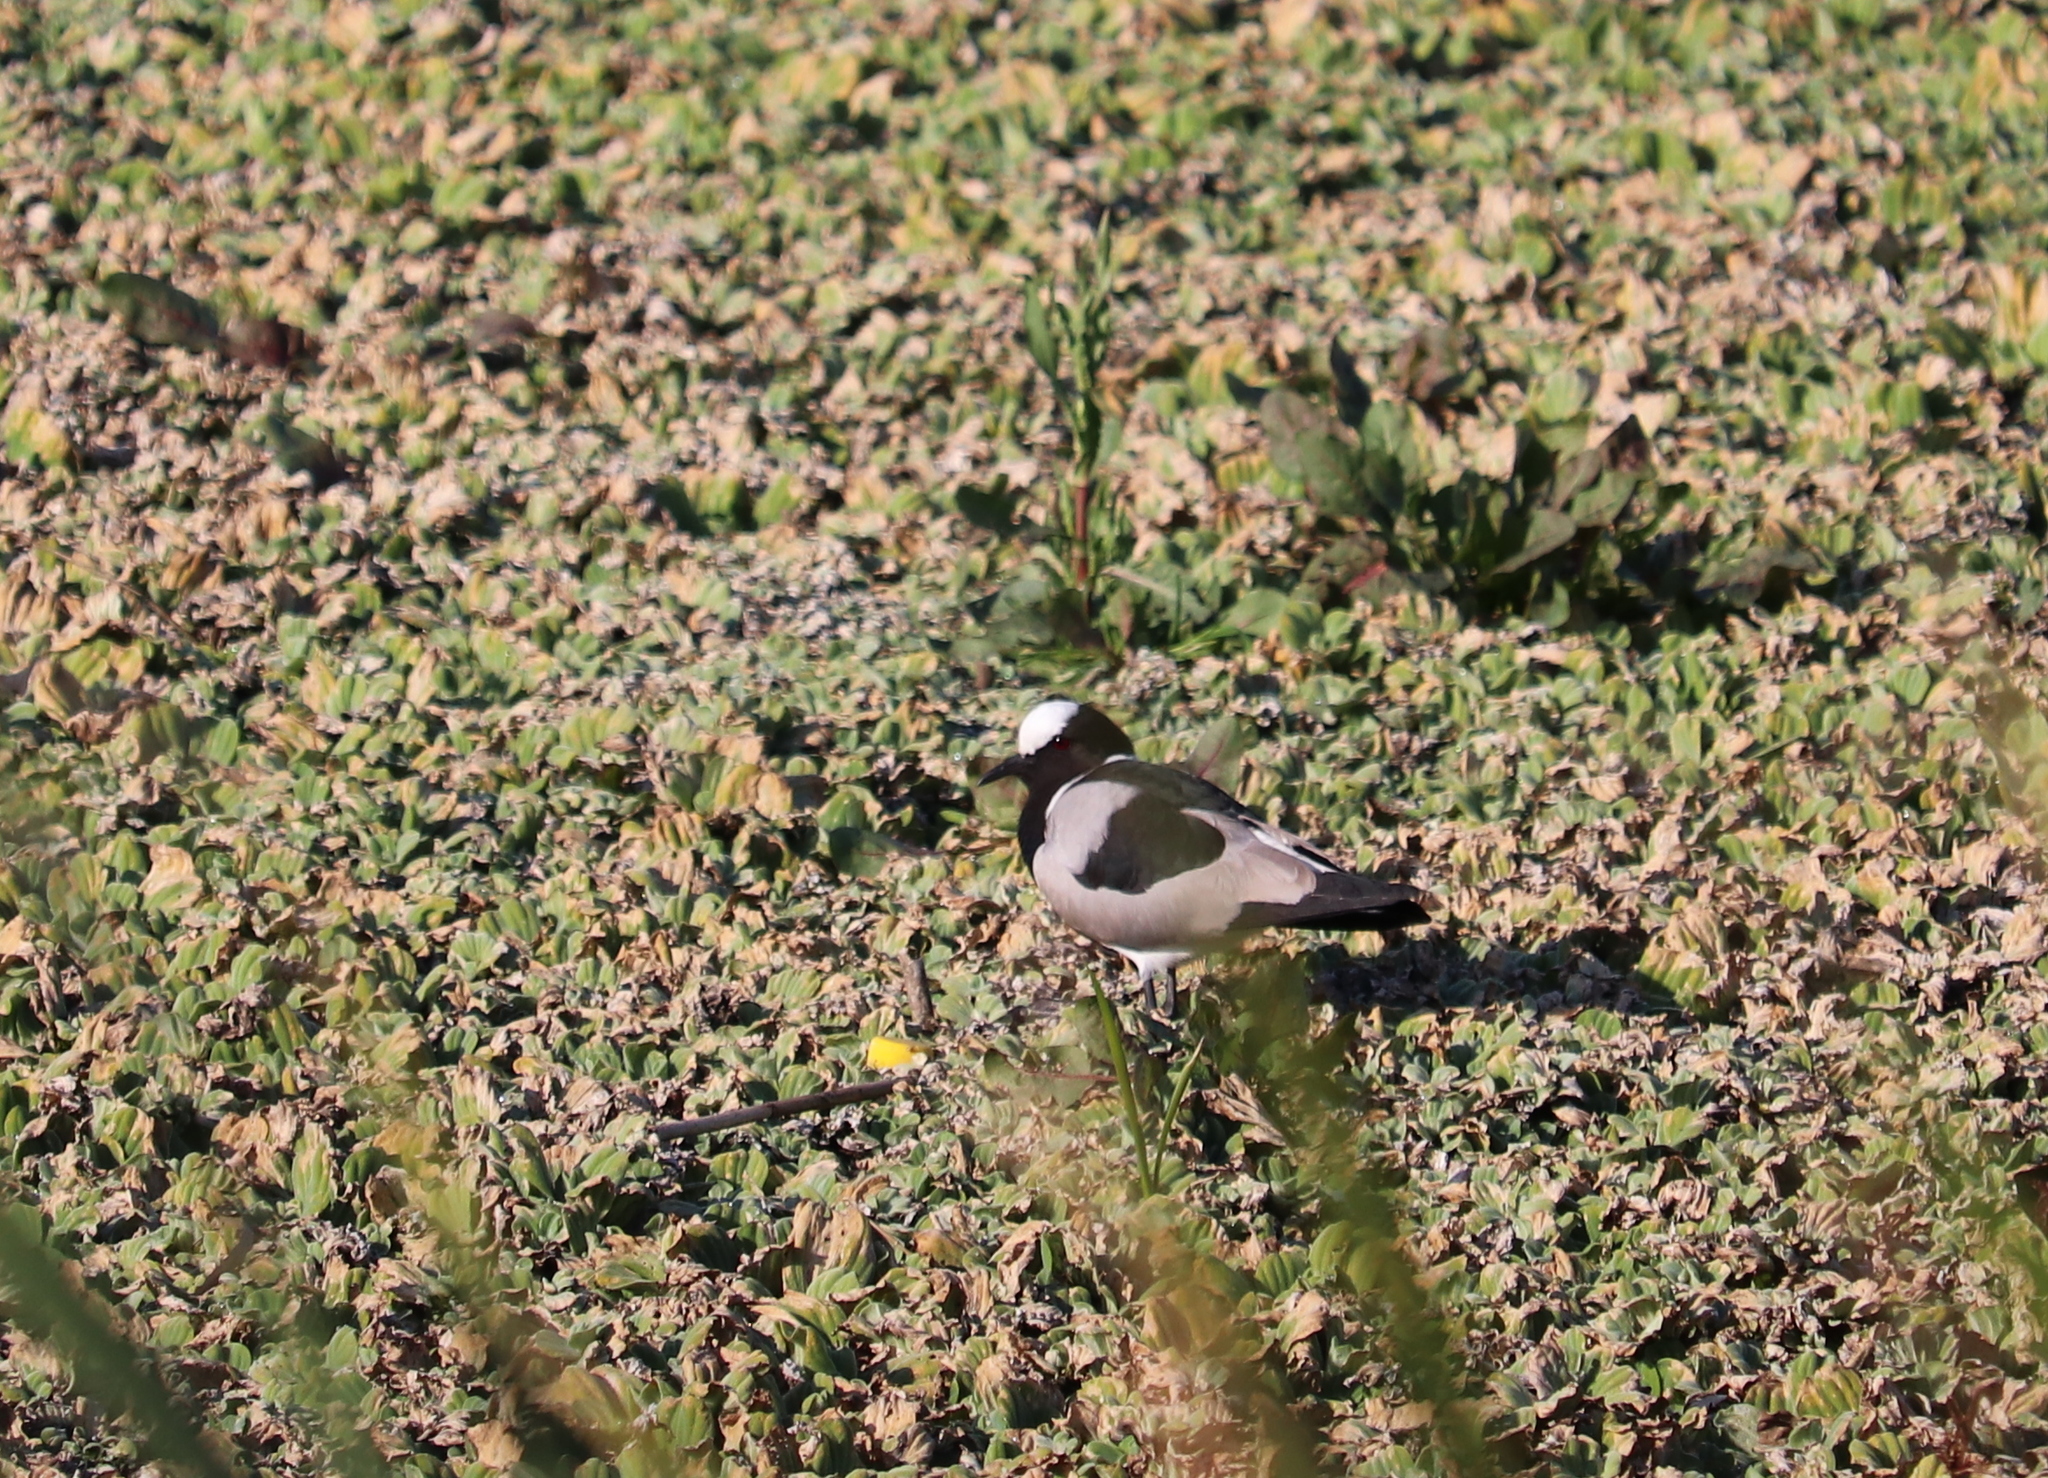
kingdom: Animalia
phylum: Chordata
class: Aves
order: Charadriiformes
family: Charadriidae
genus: Vanellus
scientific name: Vanellus armatus
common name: Blacksmith lapwing
